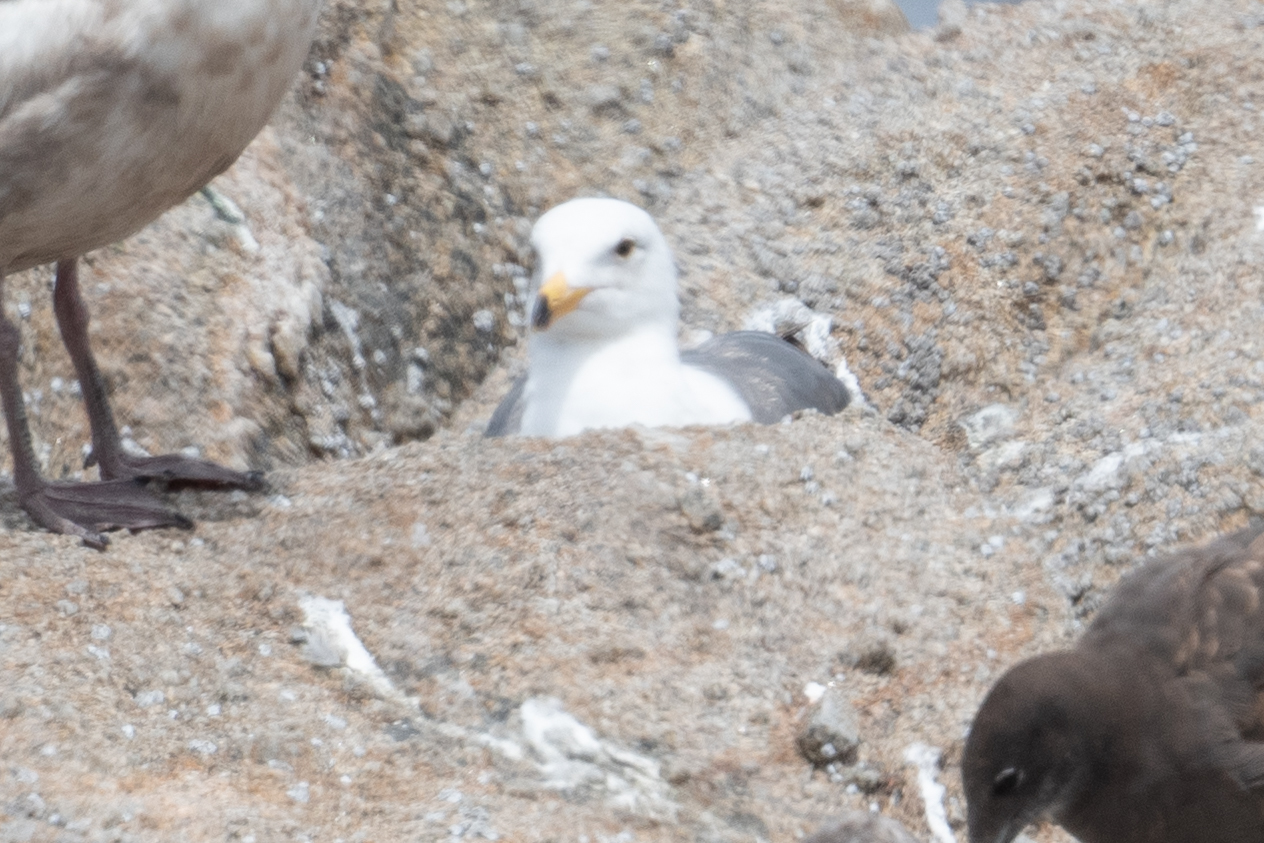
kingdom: Animalia
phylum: Chordata
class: Aves
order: Charadriiformes
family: Laridae
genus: Larus
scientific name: Larus occidentalis
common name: Western gull
